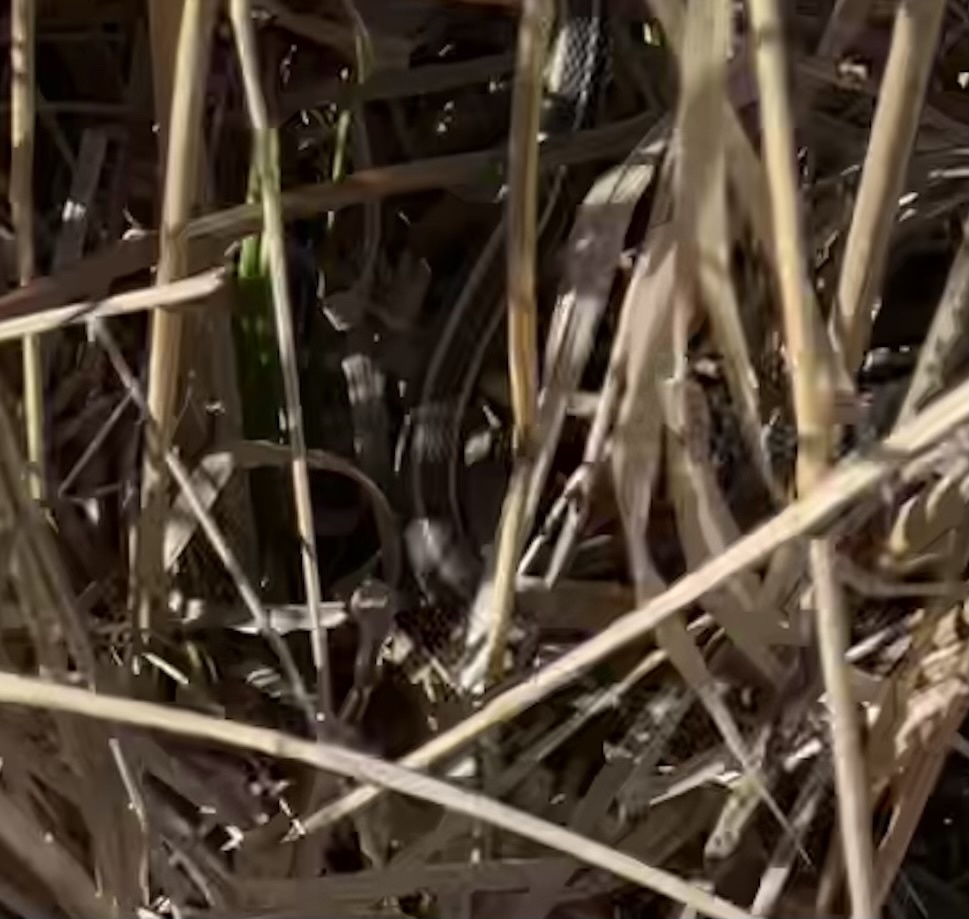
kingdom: Animalia
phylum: Chordata
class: Squamata
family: Colubridae
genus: Thamnophis
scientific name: Thamnophis ordinoides
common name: Northwestern garter snake
